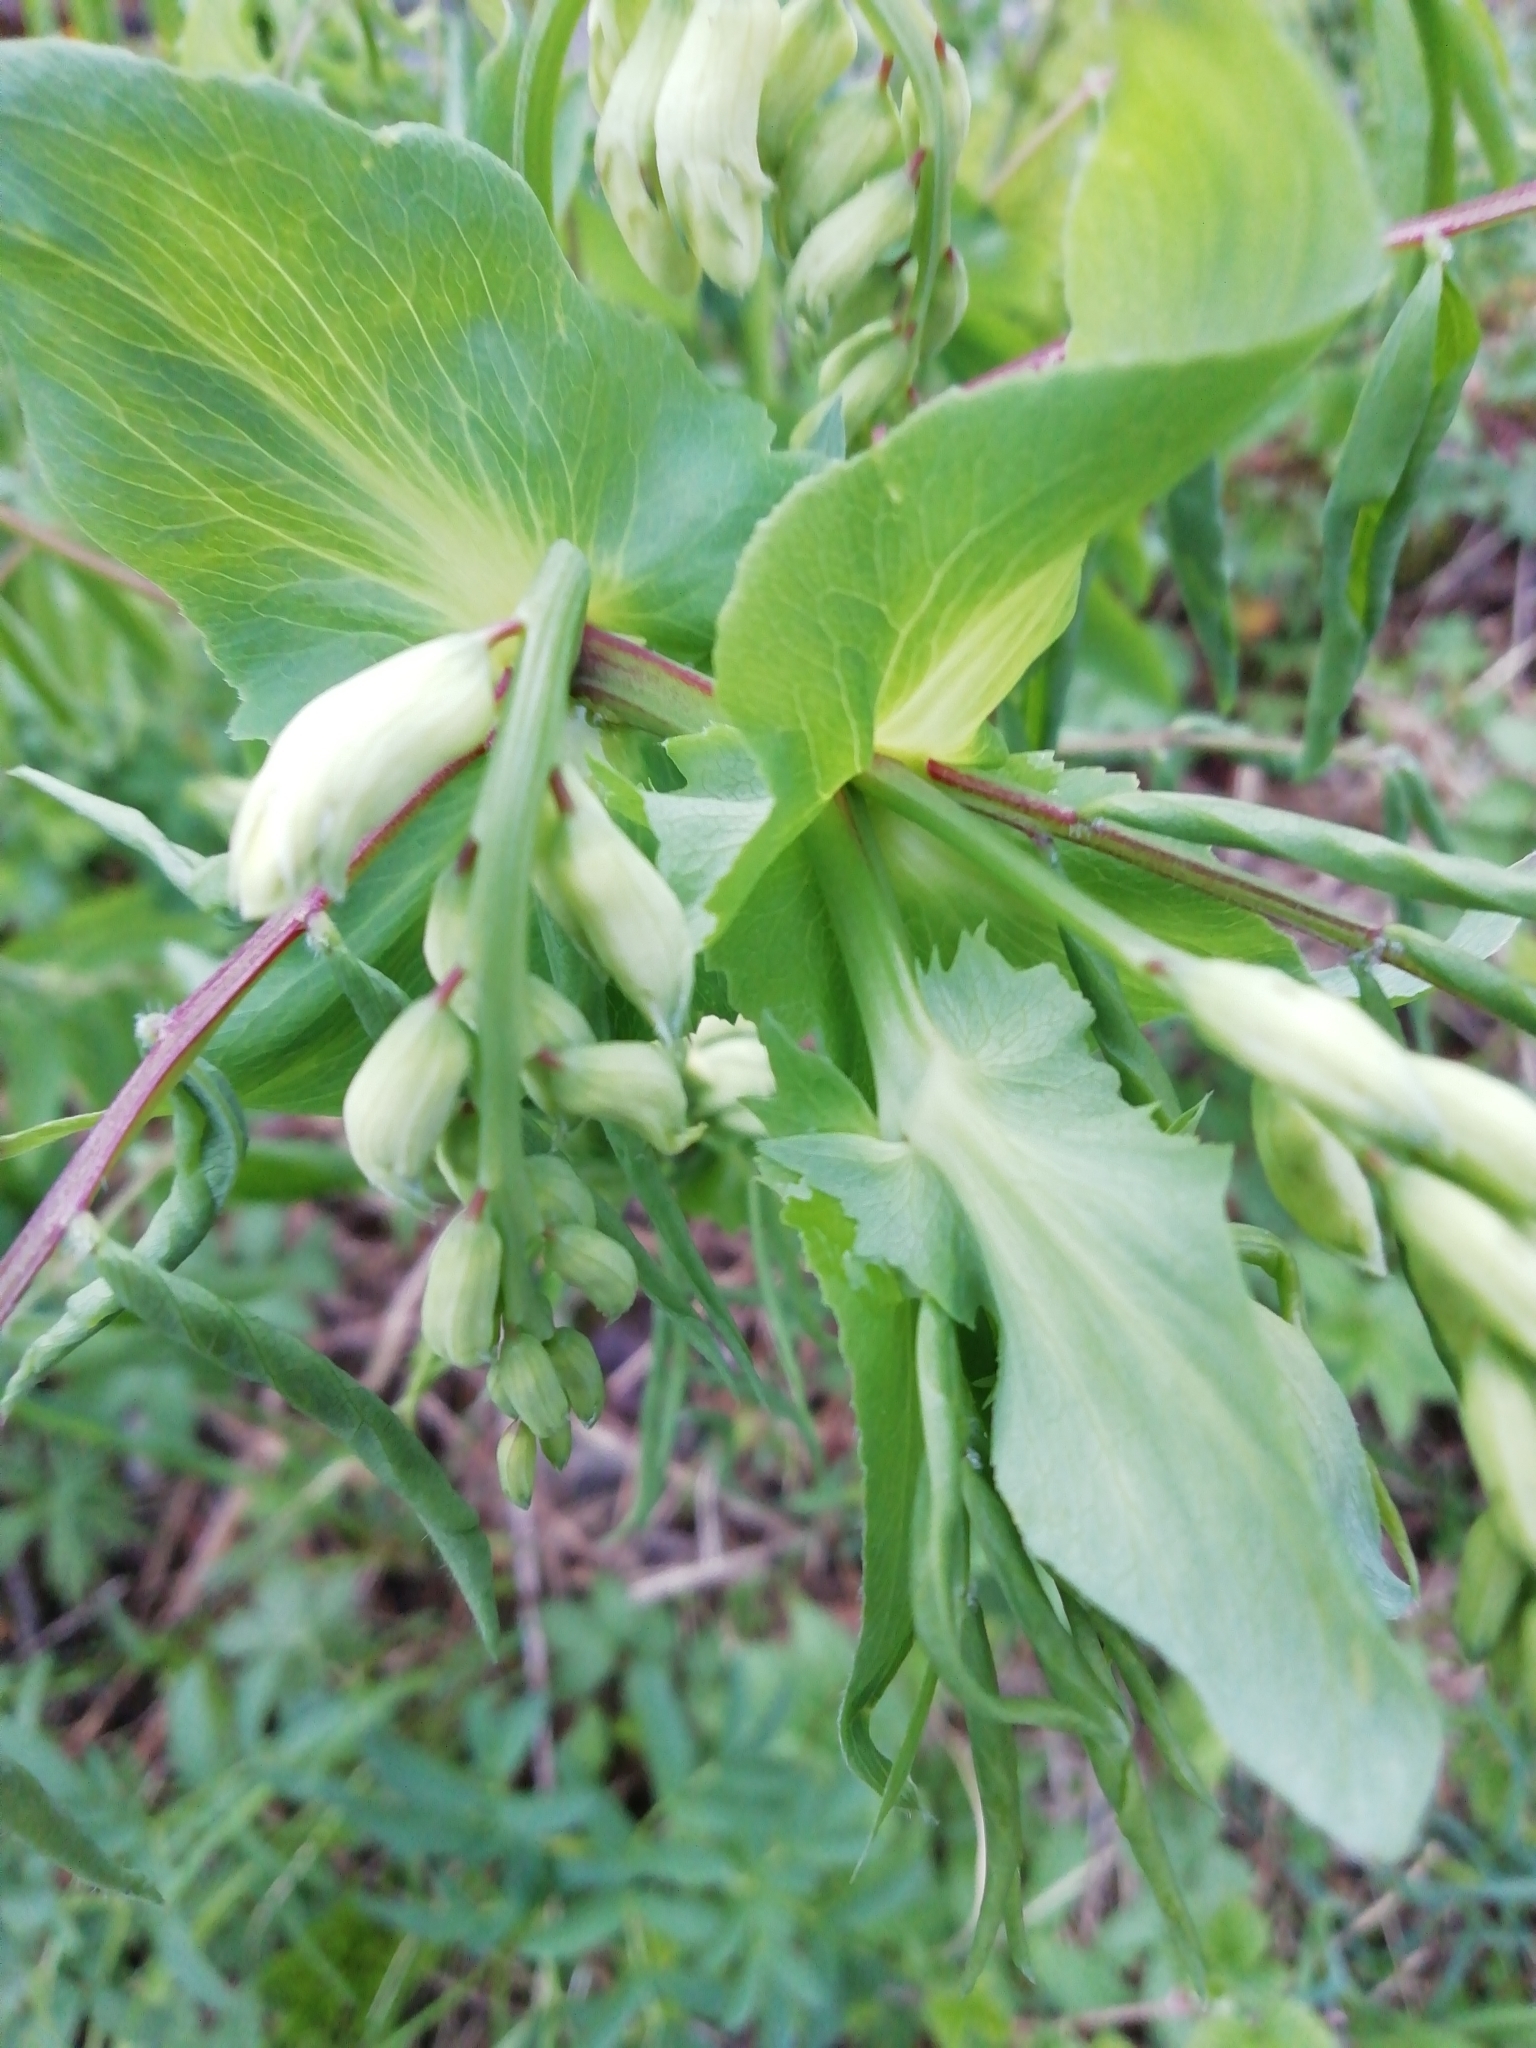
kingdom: Plantae
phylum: Tracheophyta
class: Magnoliopsida
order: Fabales
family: Fabaceae
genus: Lathyrus
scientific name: Lathyrus gmelinii
